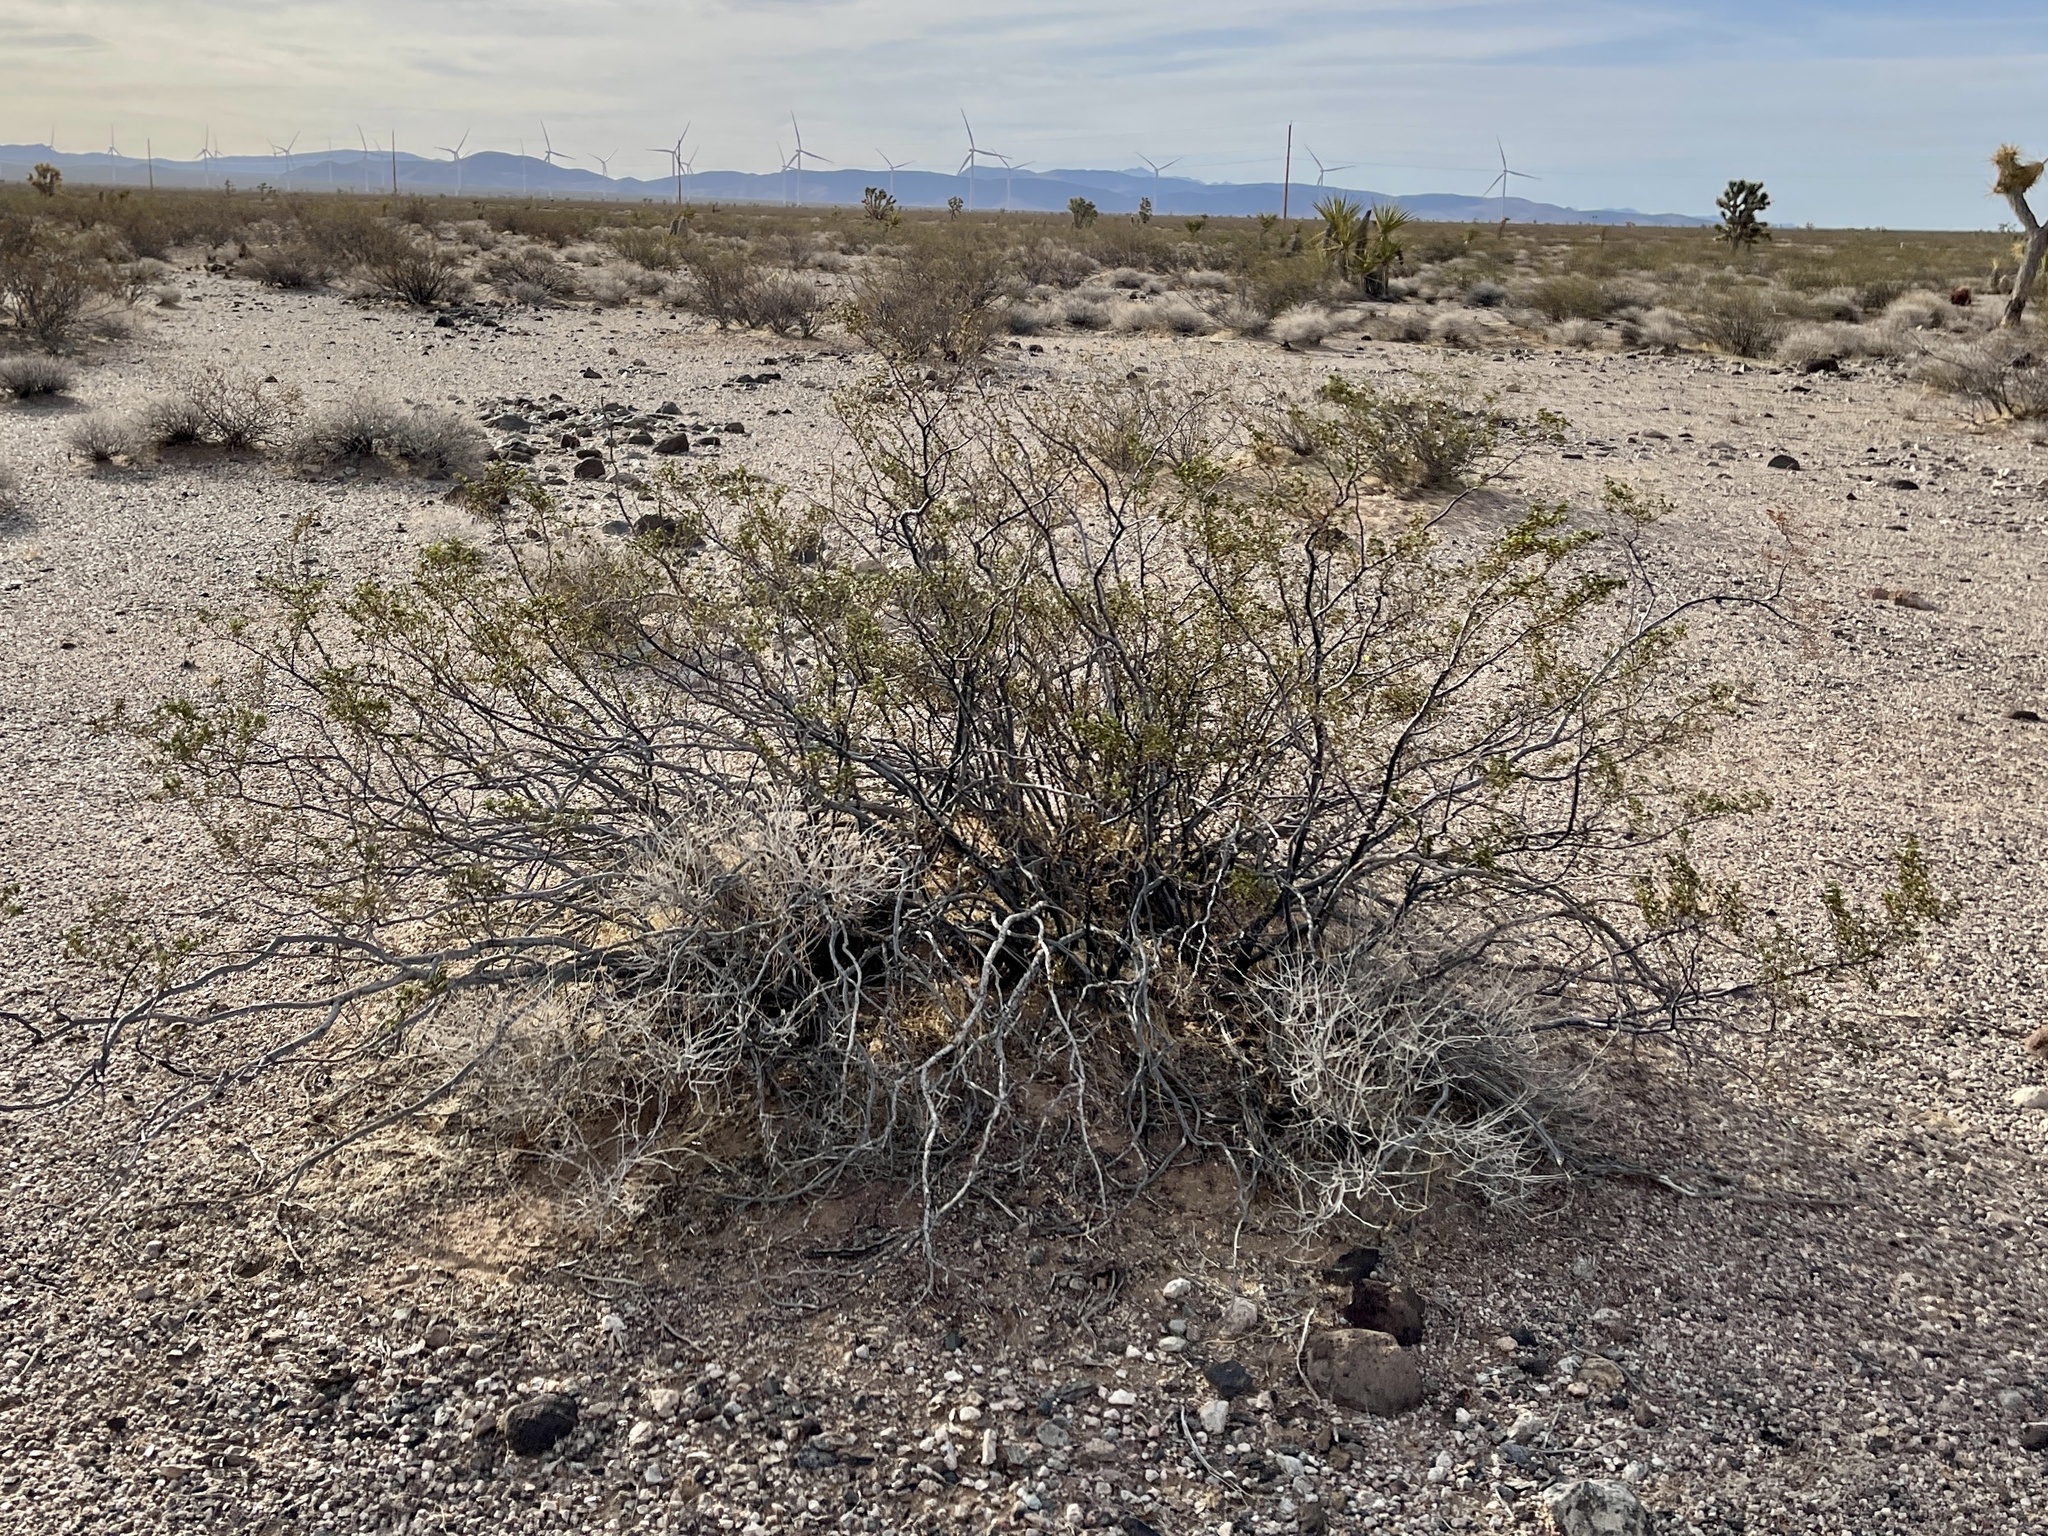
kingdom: Plantae
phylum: Tracheophyta
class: Magnoliopsida
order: Zygophyllales
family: Zygophyllaceae
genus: Larrea
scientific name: Larrea tridentata
